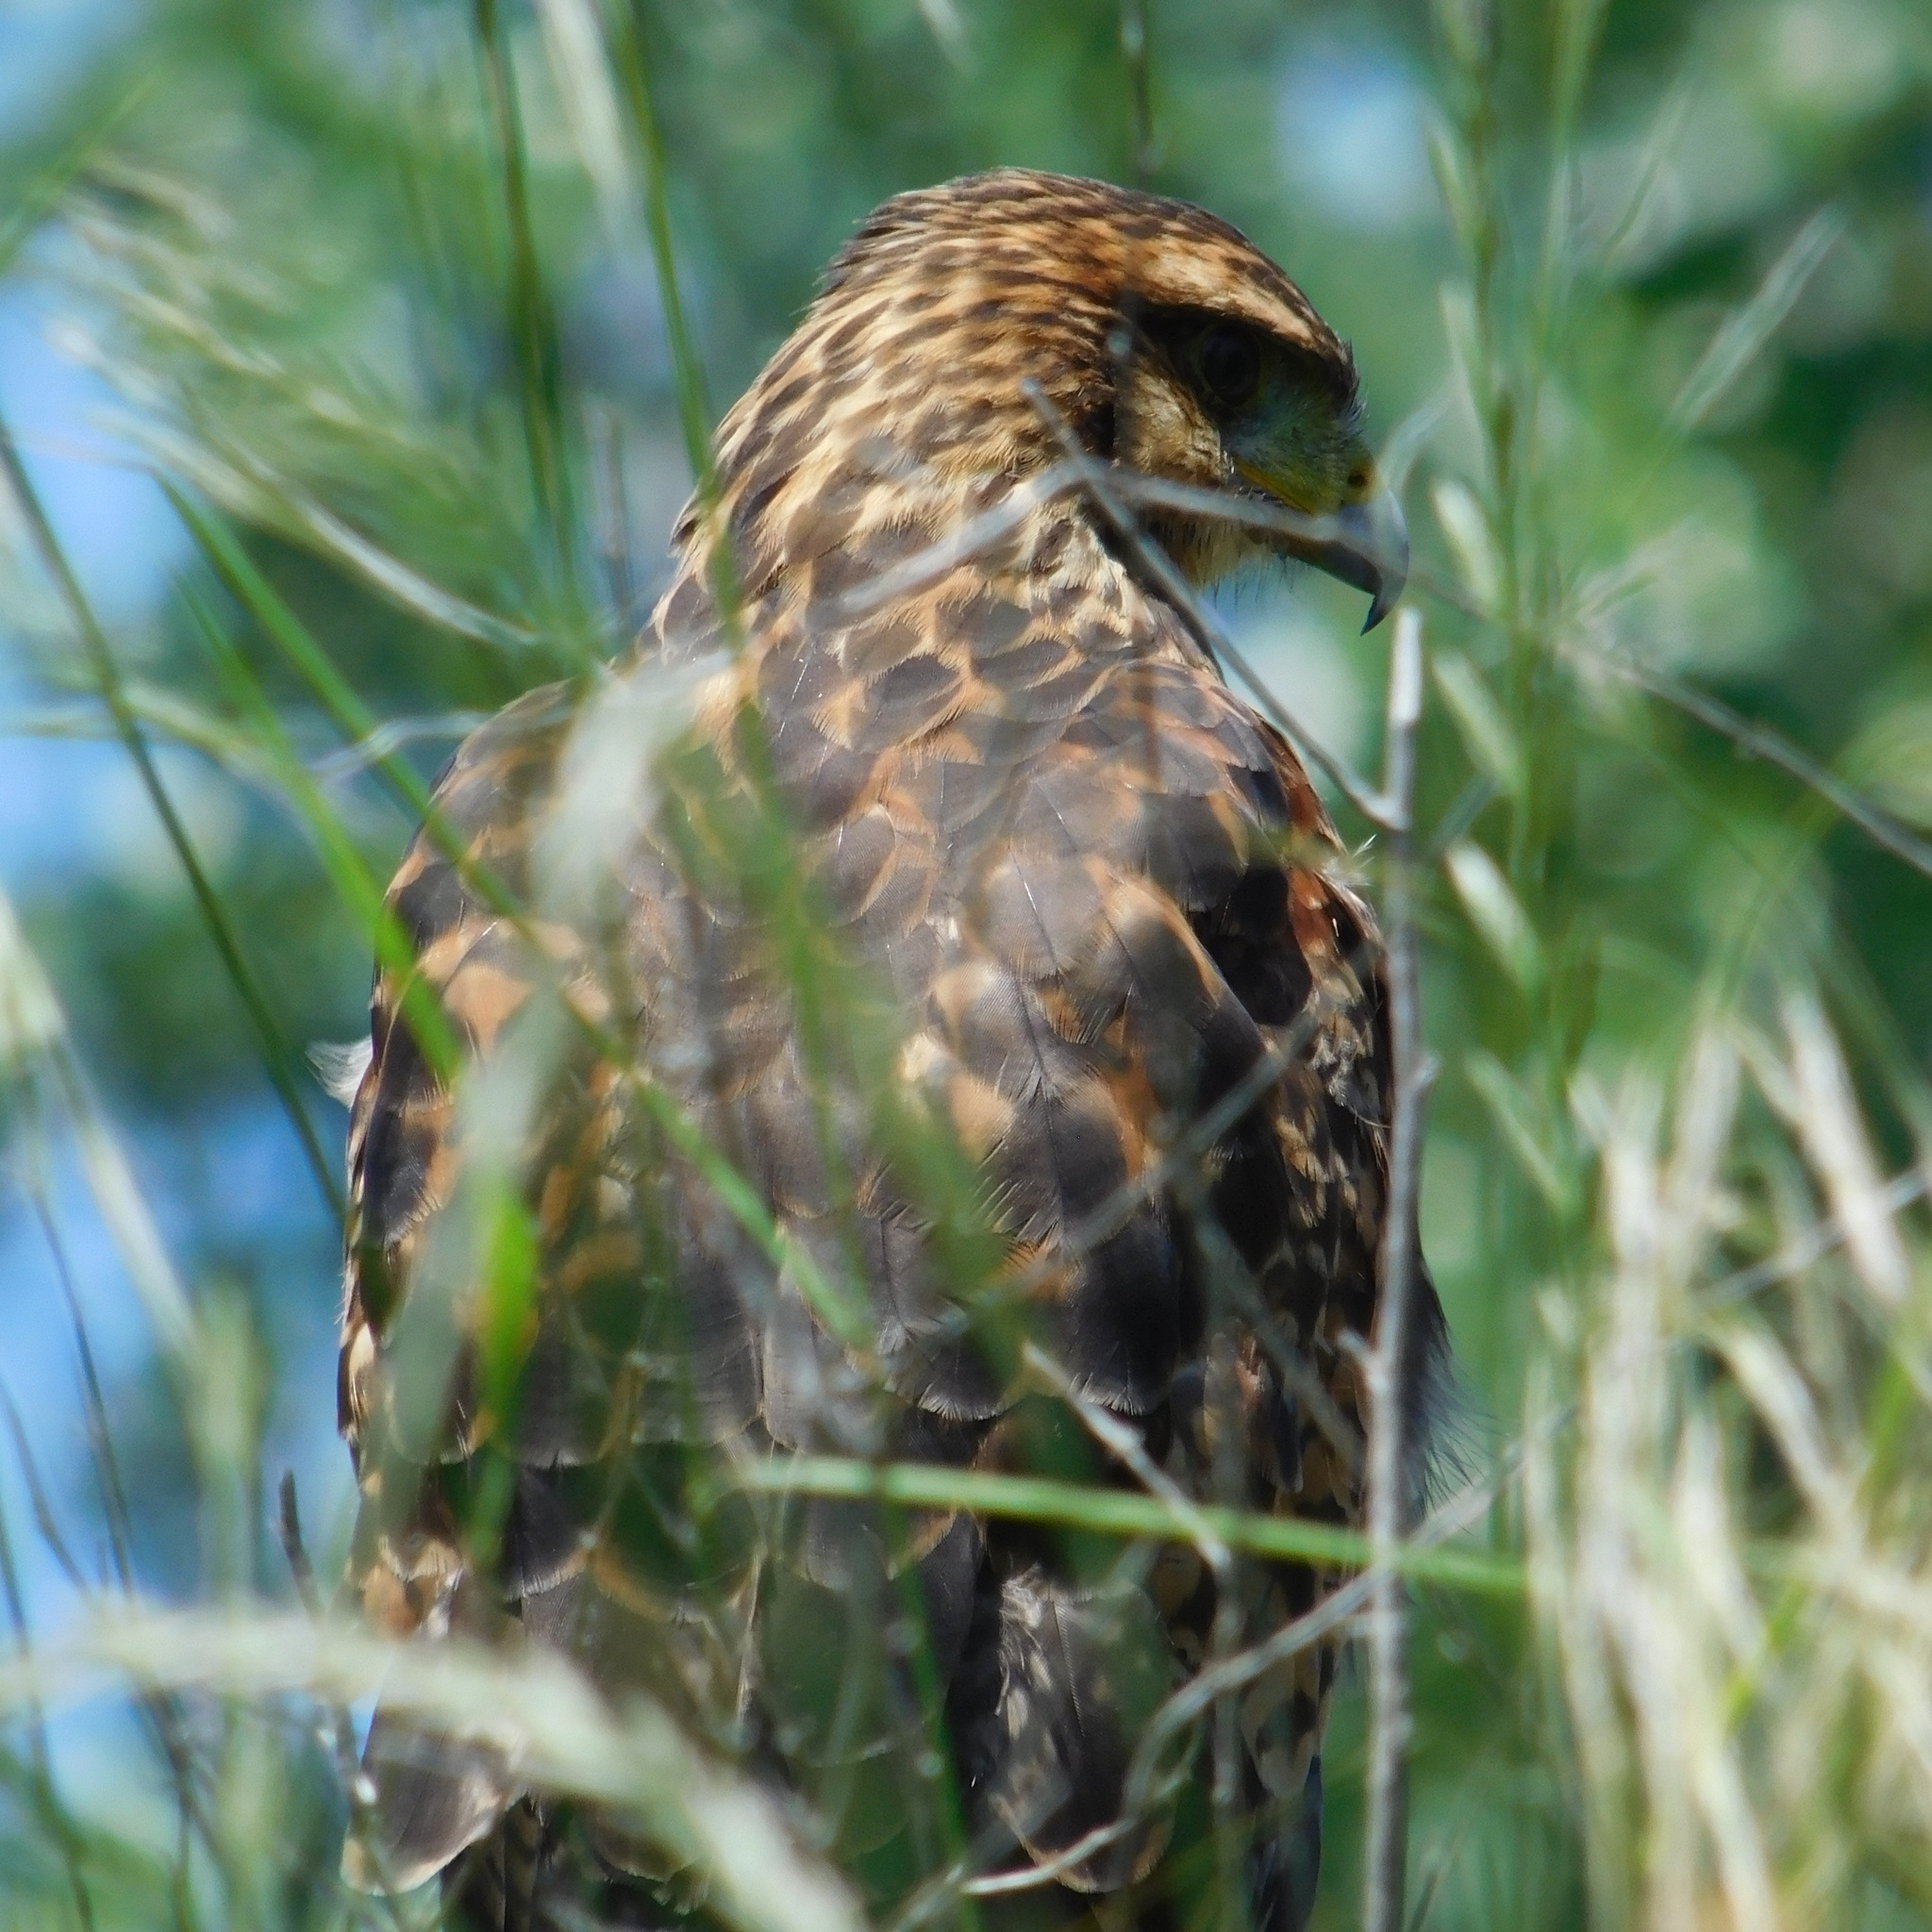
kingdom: Animalia
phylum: Chordata
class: Aves
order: Accipitriformes
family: Accipitridae
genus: Parabuteo
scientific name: Parabuteo unicinctus
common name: Harris's hawk
